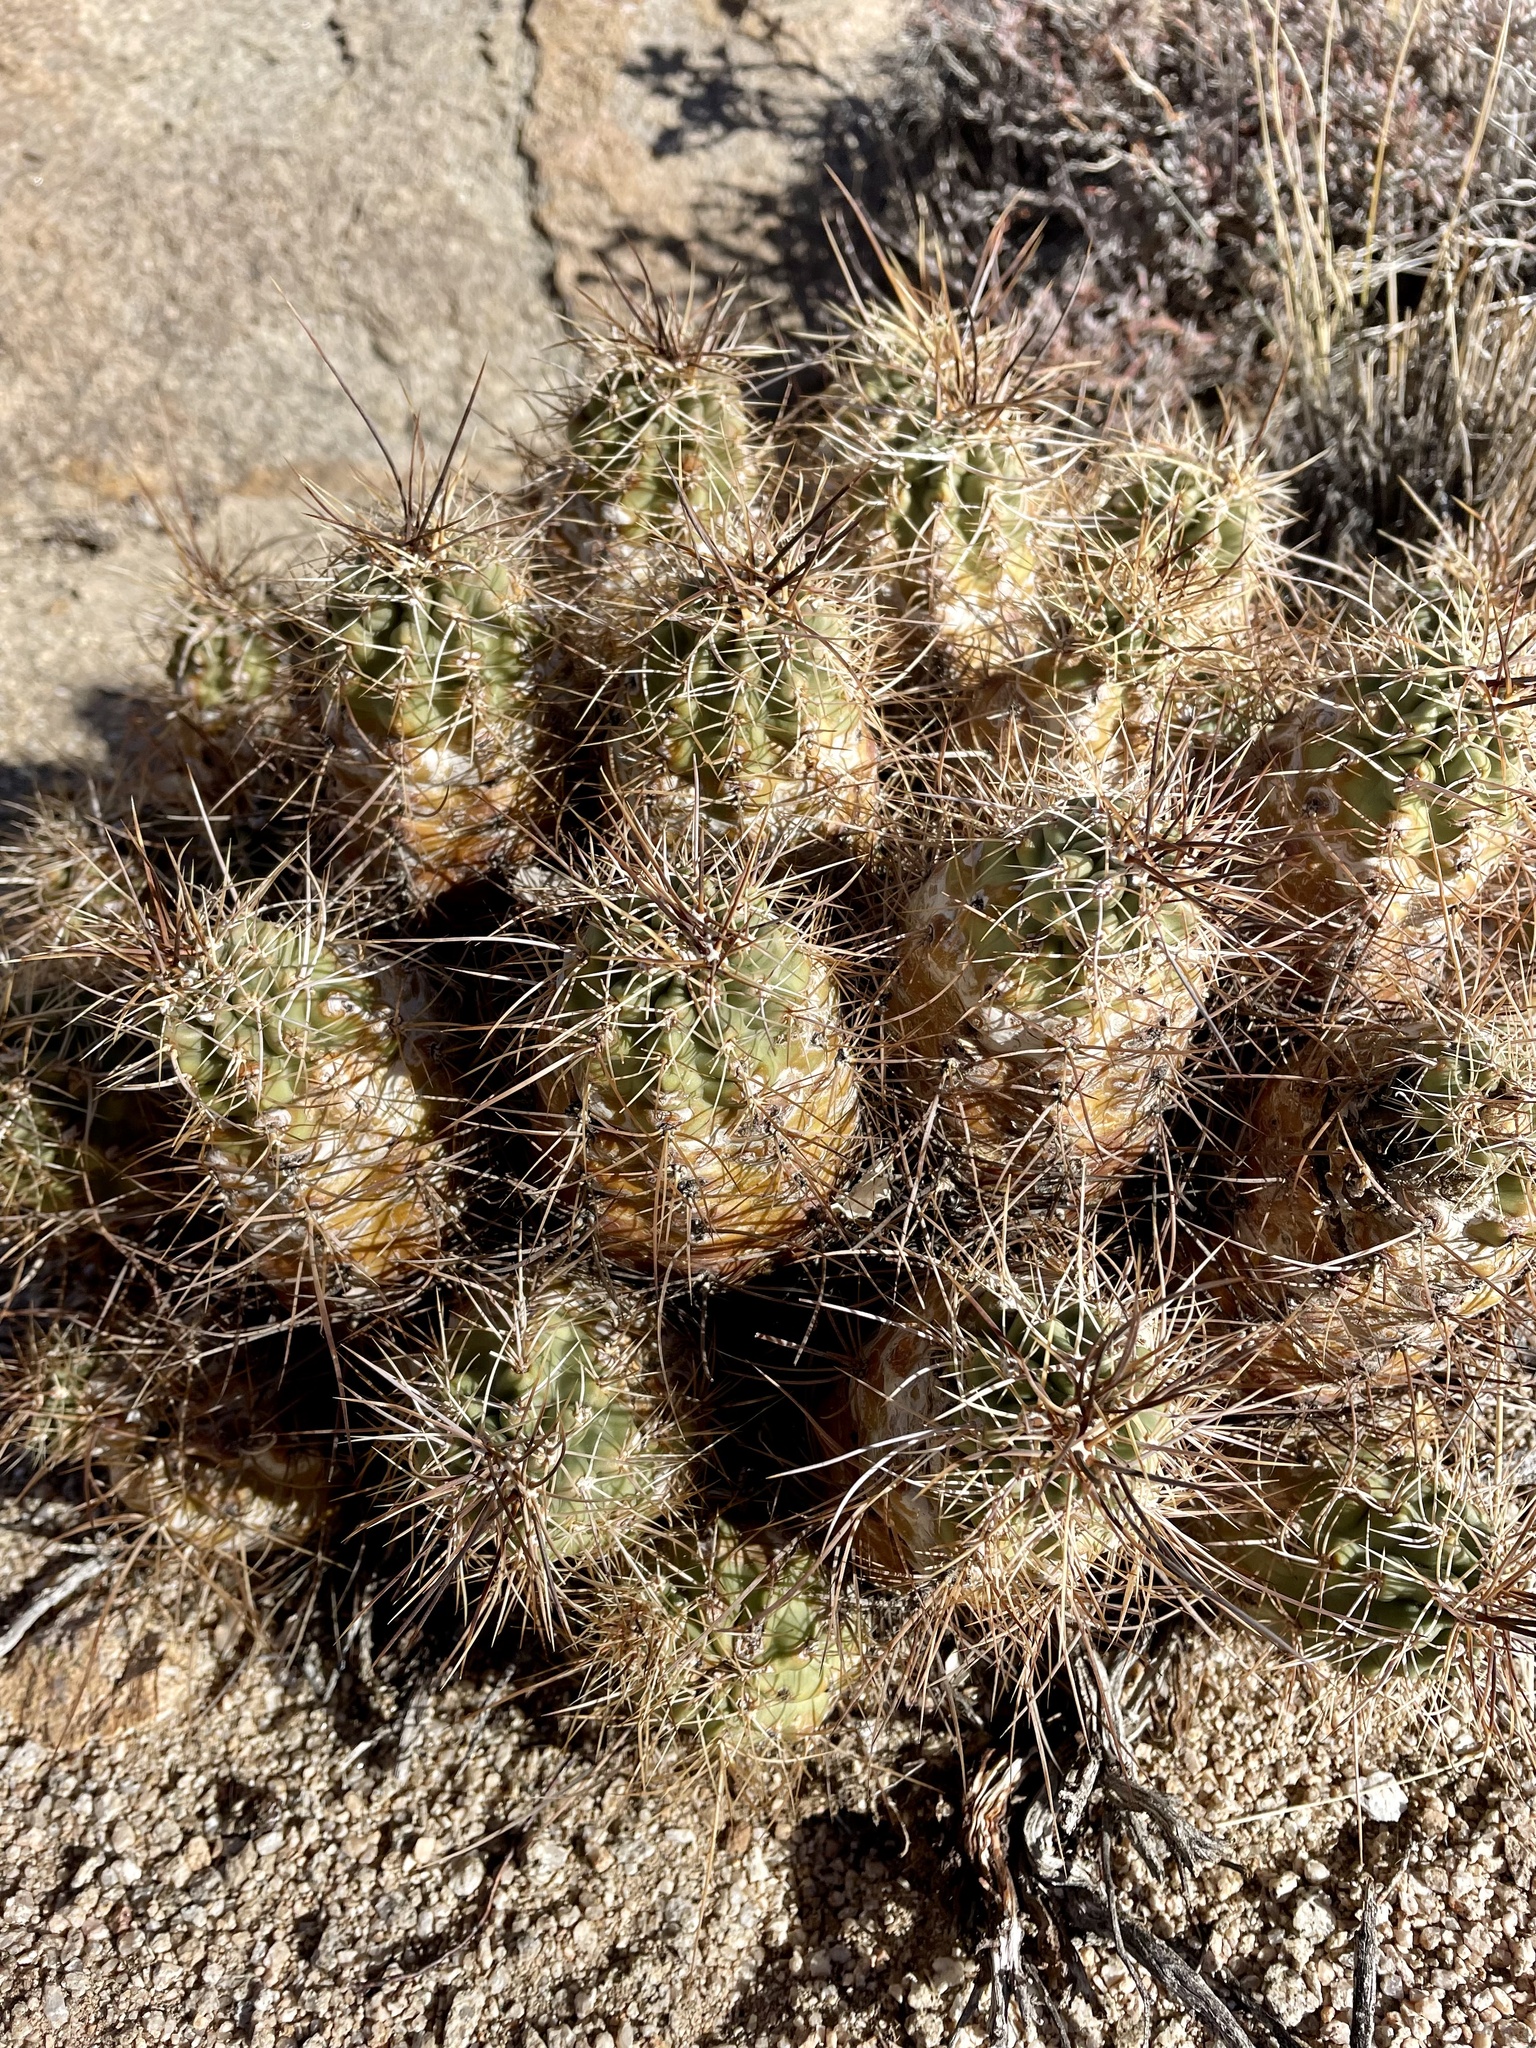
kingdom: Plantae
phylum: Tracheophyta
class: Magnoliopsida
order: Caryophyllales
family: Cactaceae
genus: Echinocereus
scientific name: Echinocereus triglochidiatus
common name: Claretcup hedgehog
